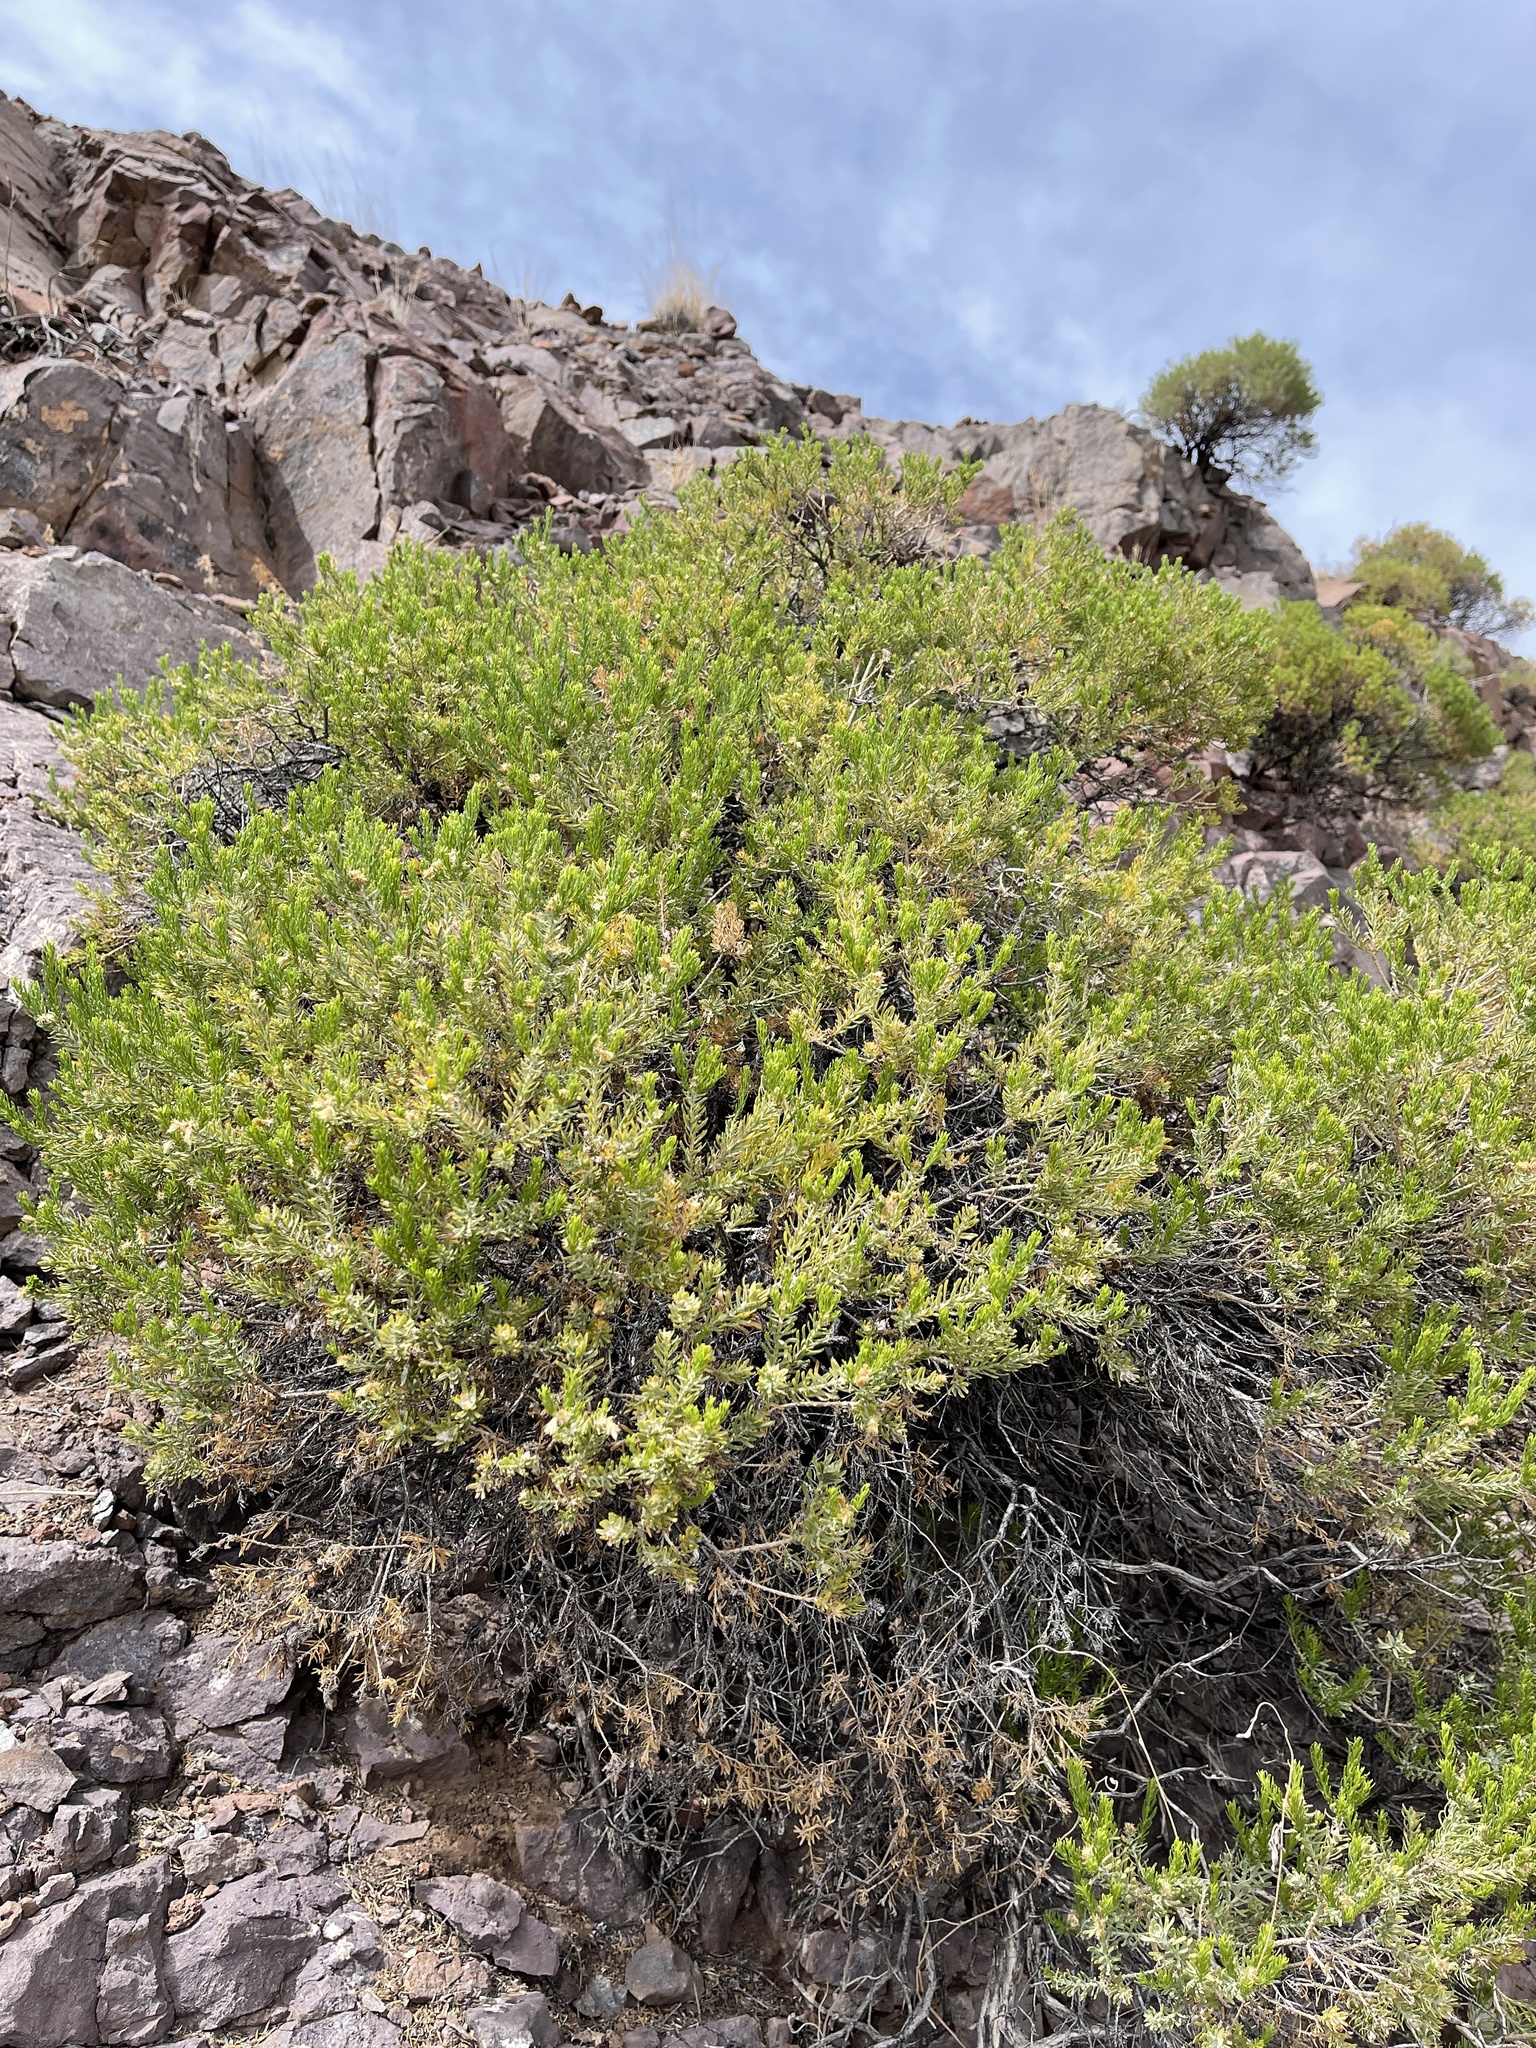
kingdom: Plantae
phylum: Tracheophyta
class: Magnoliopsida
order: Asterales
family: Asteraceae
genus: Ericameria
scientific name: Ericameria laricifolia
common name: Turpentine-bush
